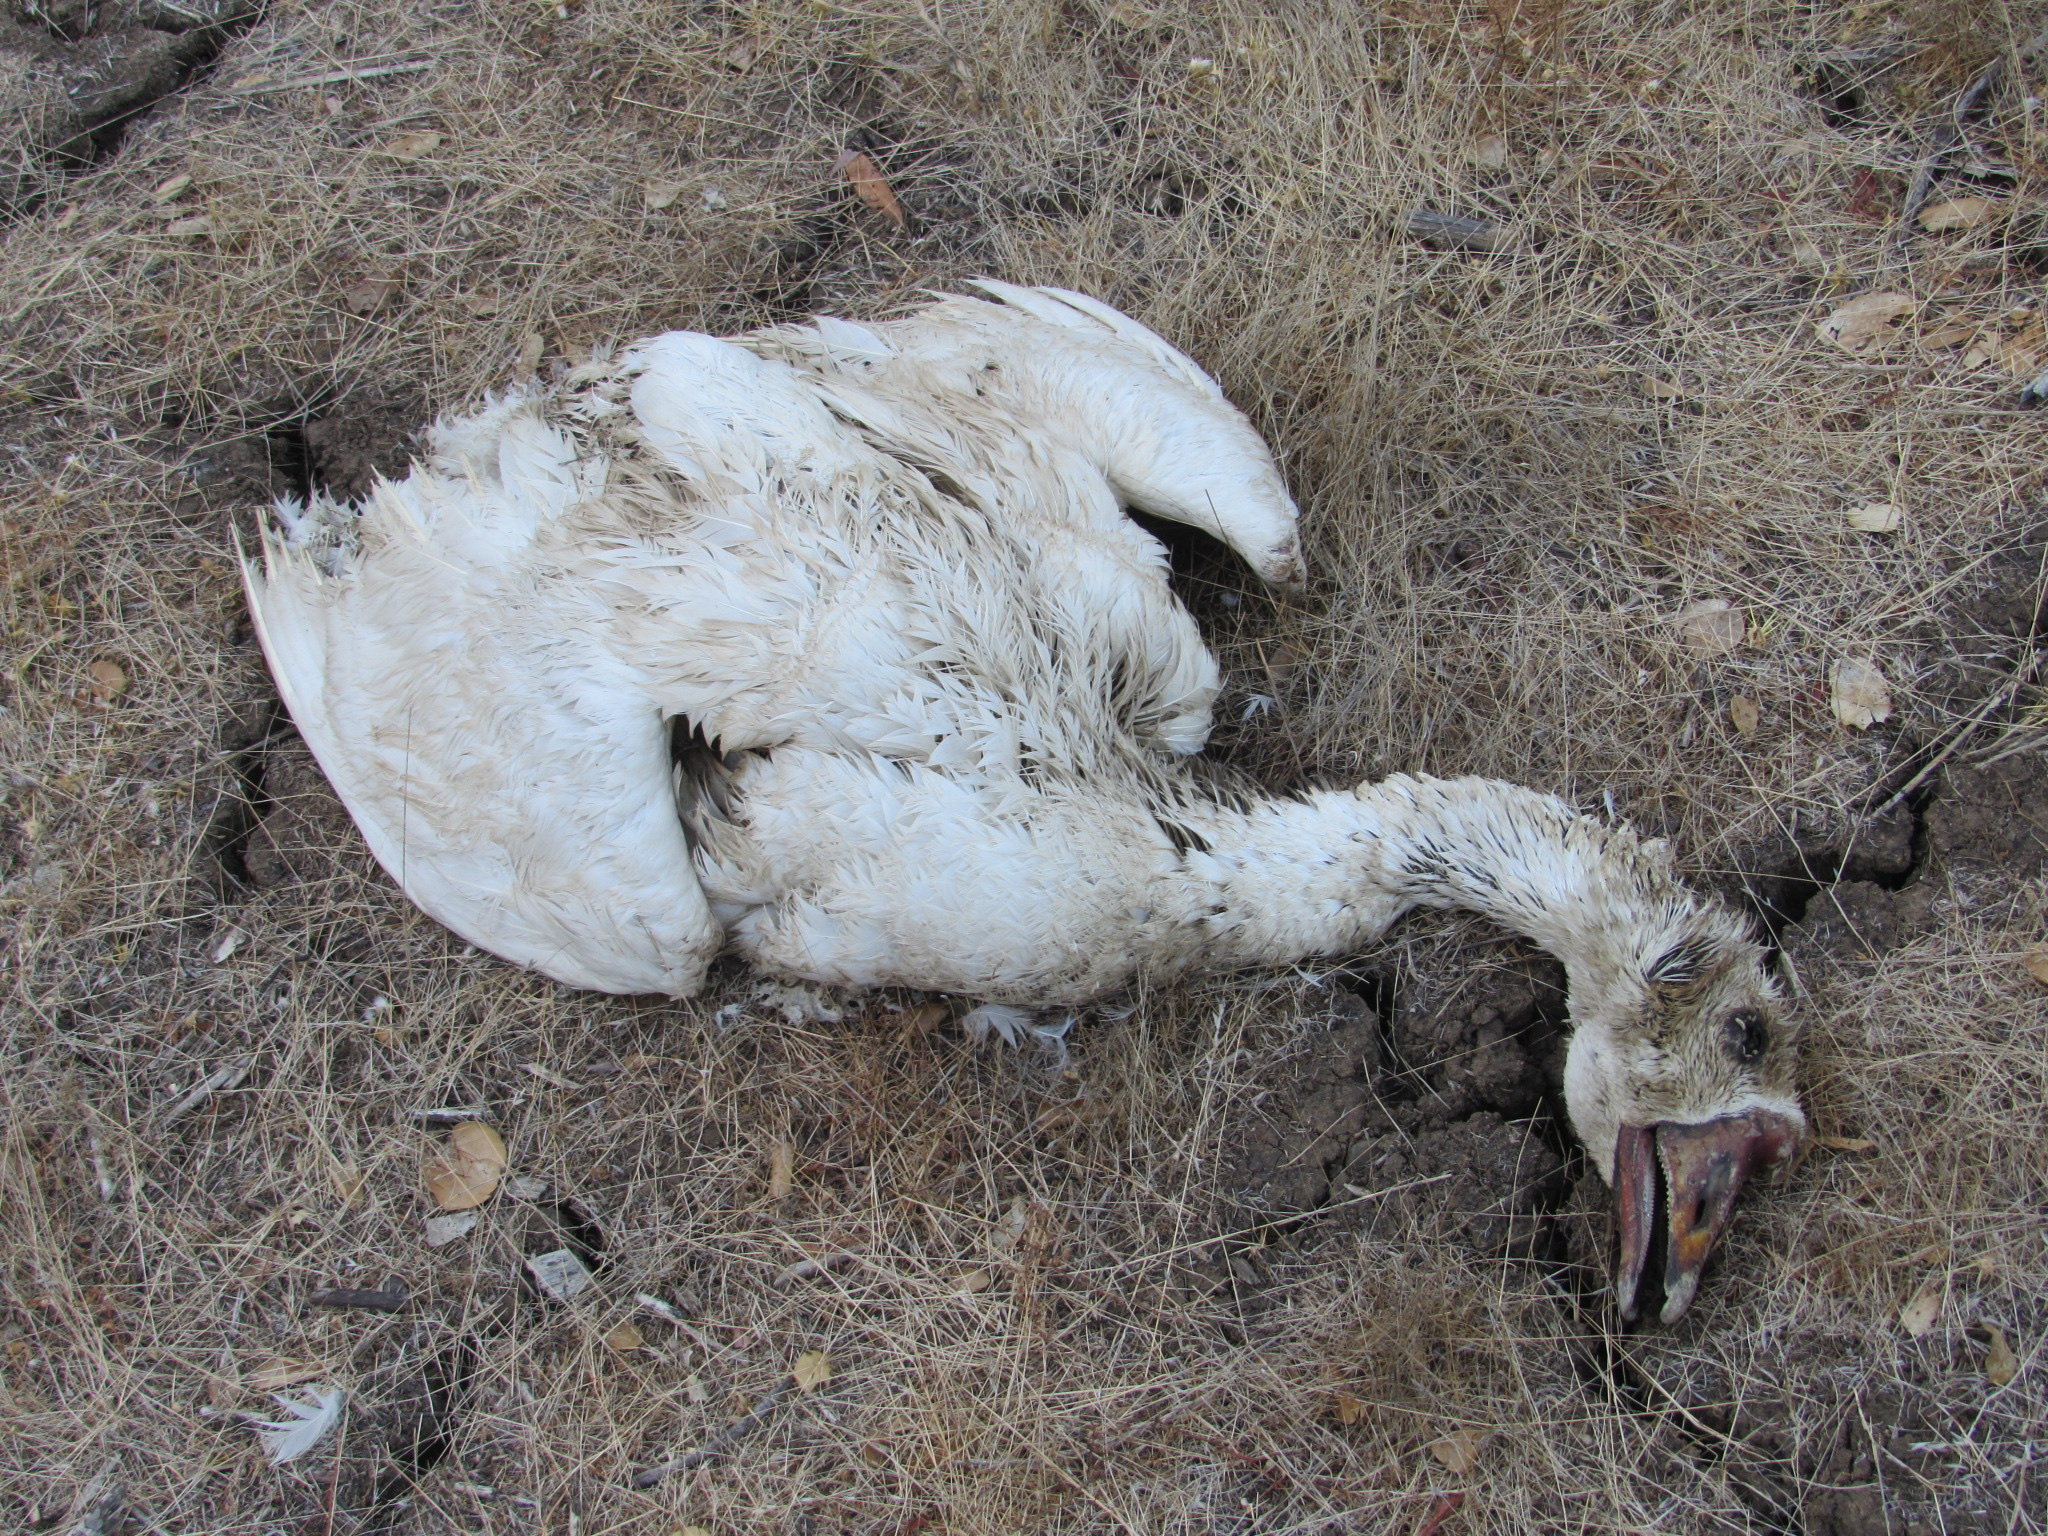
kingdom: Animalia
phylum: Chordata
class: Aves
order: Anseriformes
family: Anatidae
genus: Anser
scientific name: Anser
